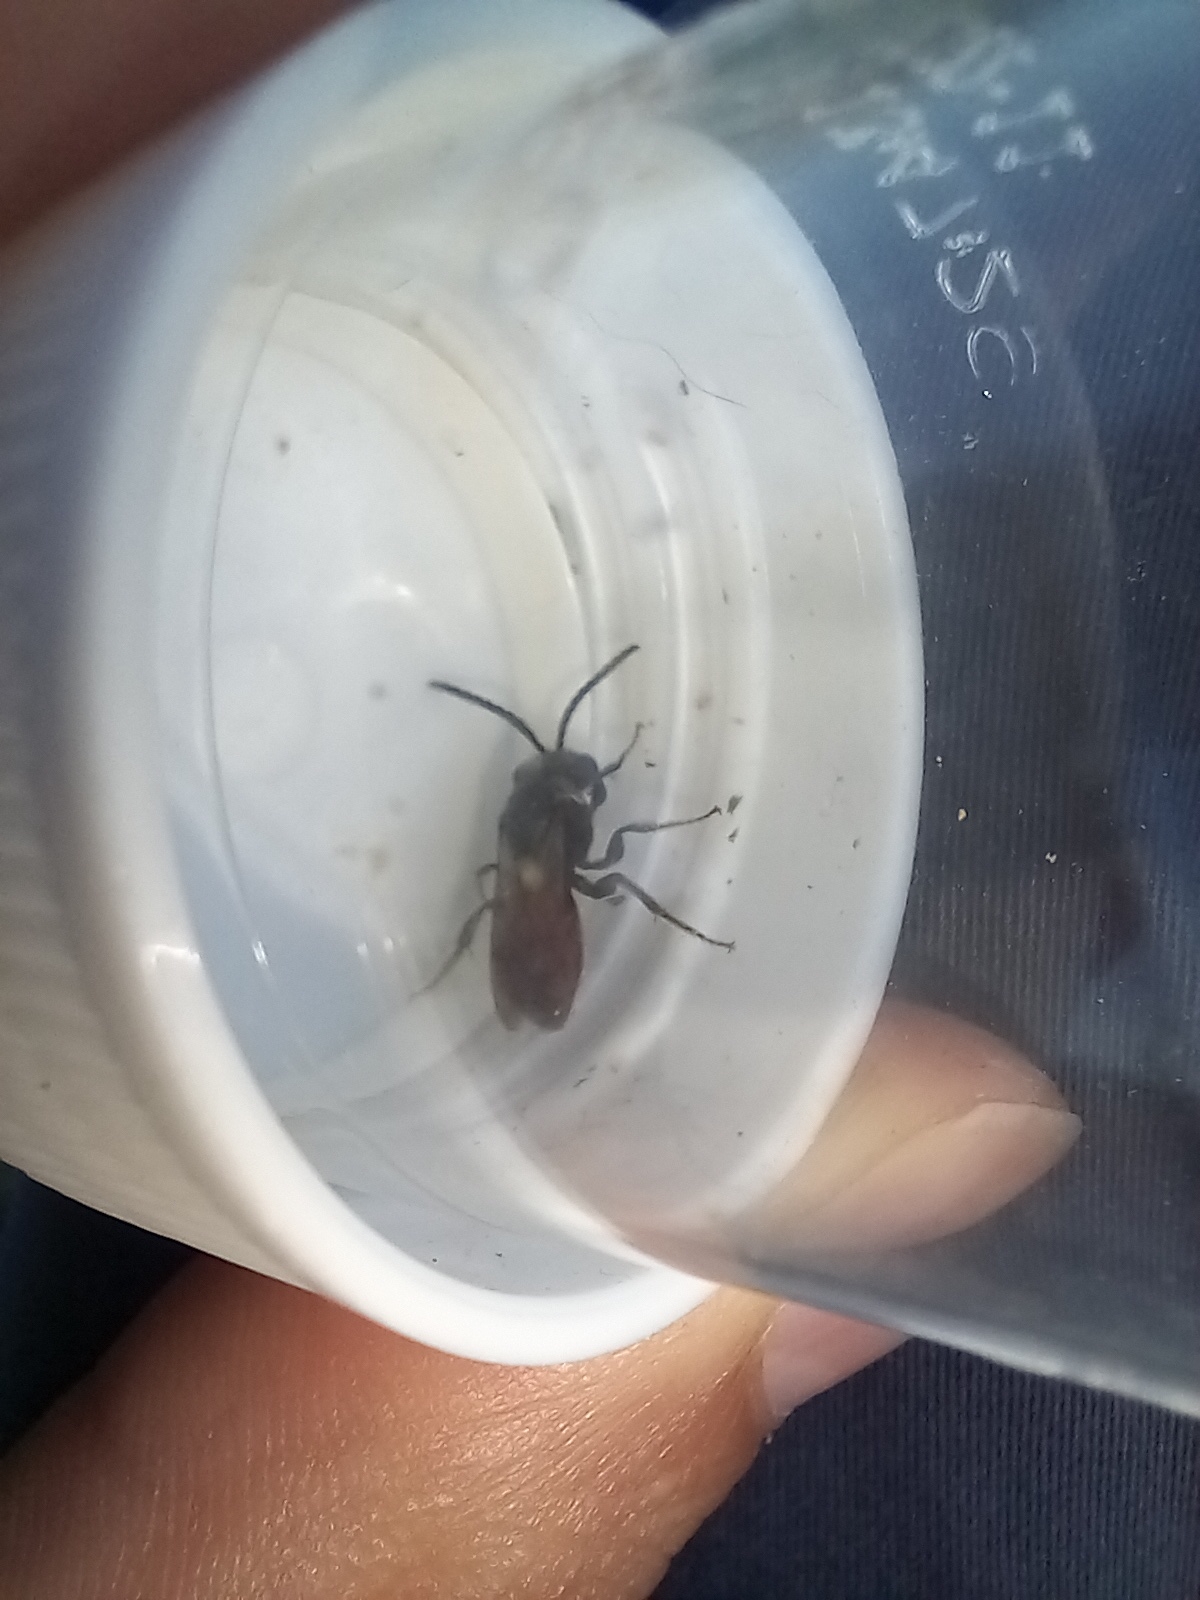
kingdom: Animalia
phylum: Arthropoda
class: Insecta
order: Hymenoptera
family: Halictidae
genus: Sphecodes
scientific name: Sphecodes albilabris
